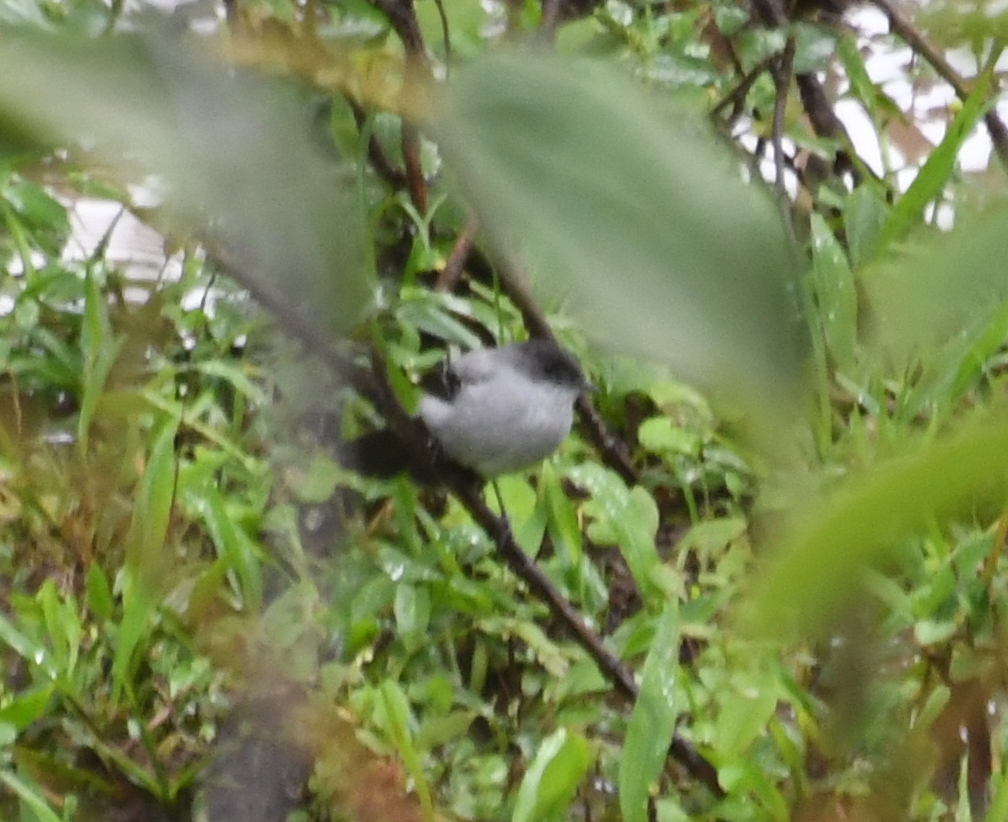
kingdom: Animalia
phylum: Chordata
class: Aves
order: Passeriformes
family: Tyrannidae
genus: Serpophaga
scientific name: Serpophaga cinerea
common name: Torrent tyrannulet
